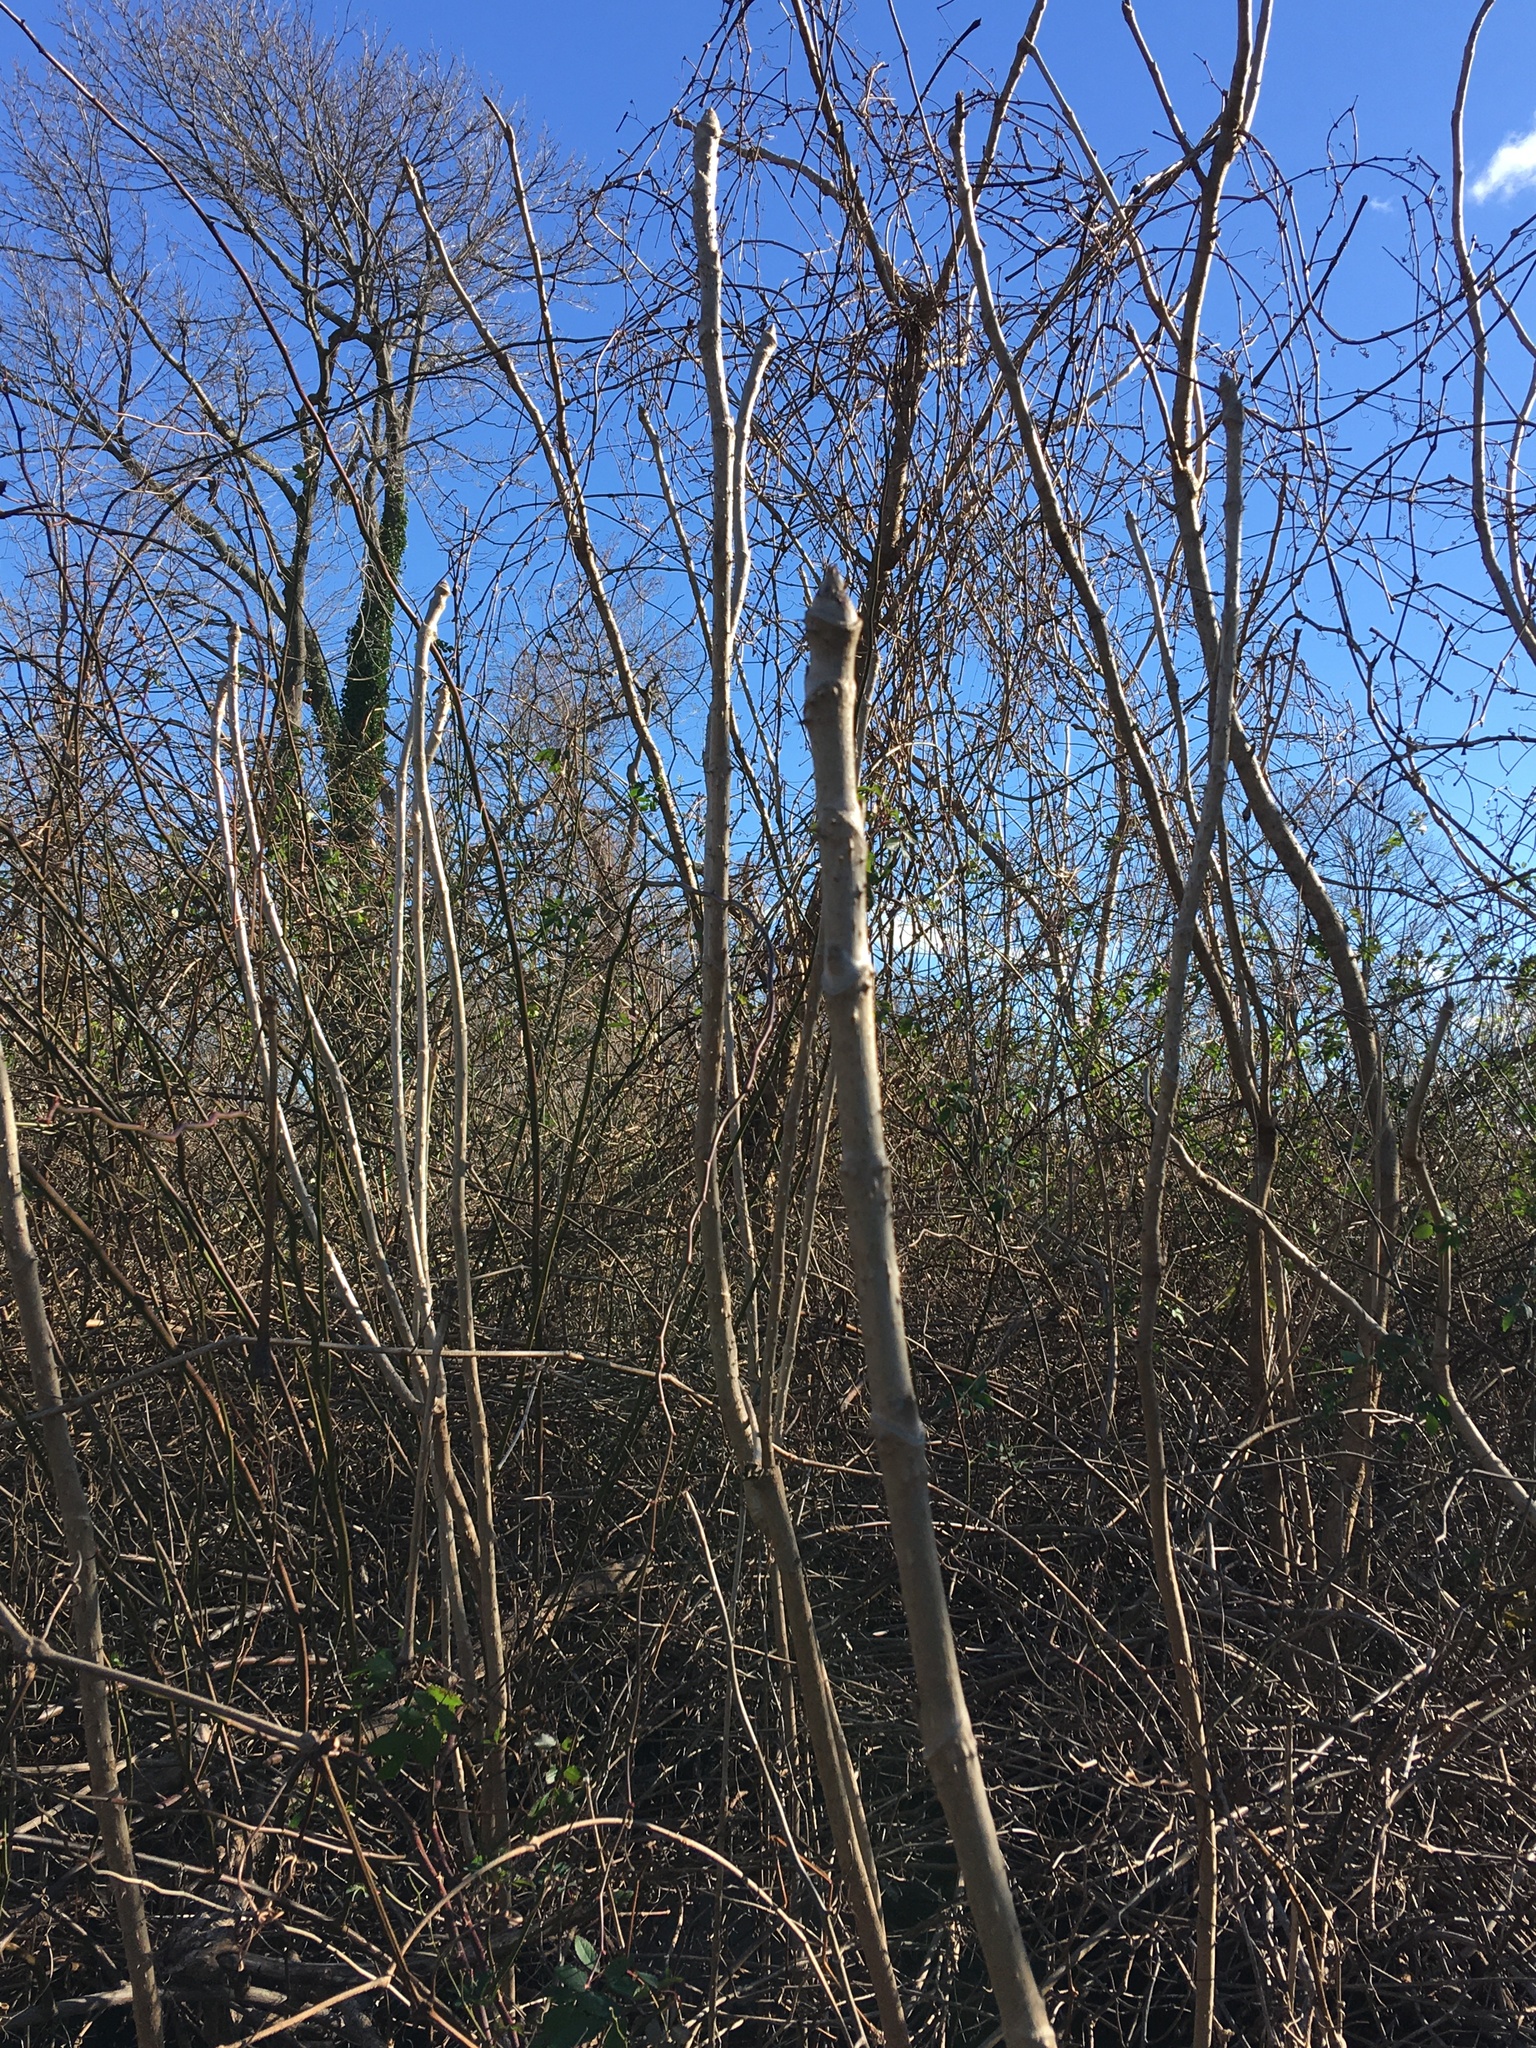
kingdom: Plantae
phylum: Tracheophyta
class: Magnoliopsida
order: Apiales
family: Araliaceae
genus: Aralia
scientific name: Aralia elata
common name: Japanese angelica-tree
